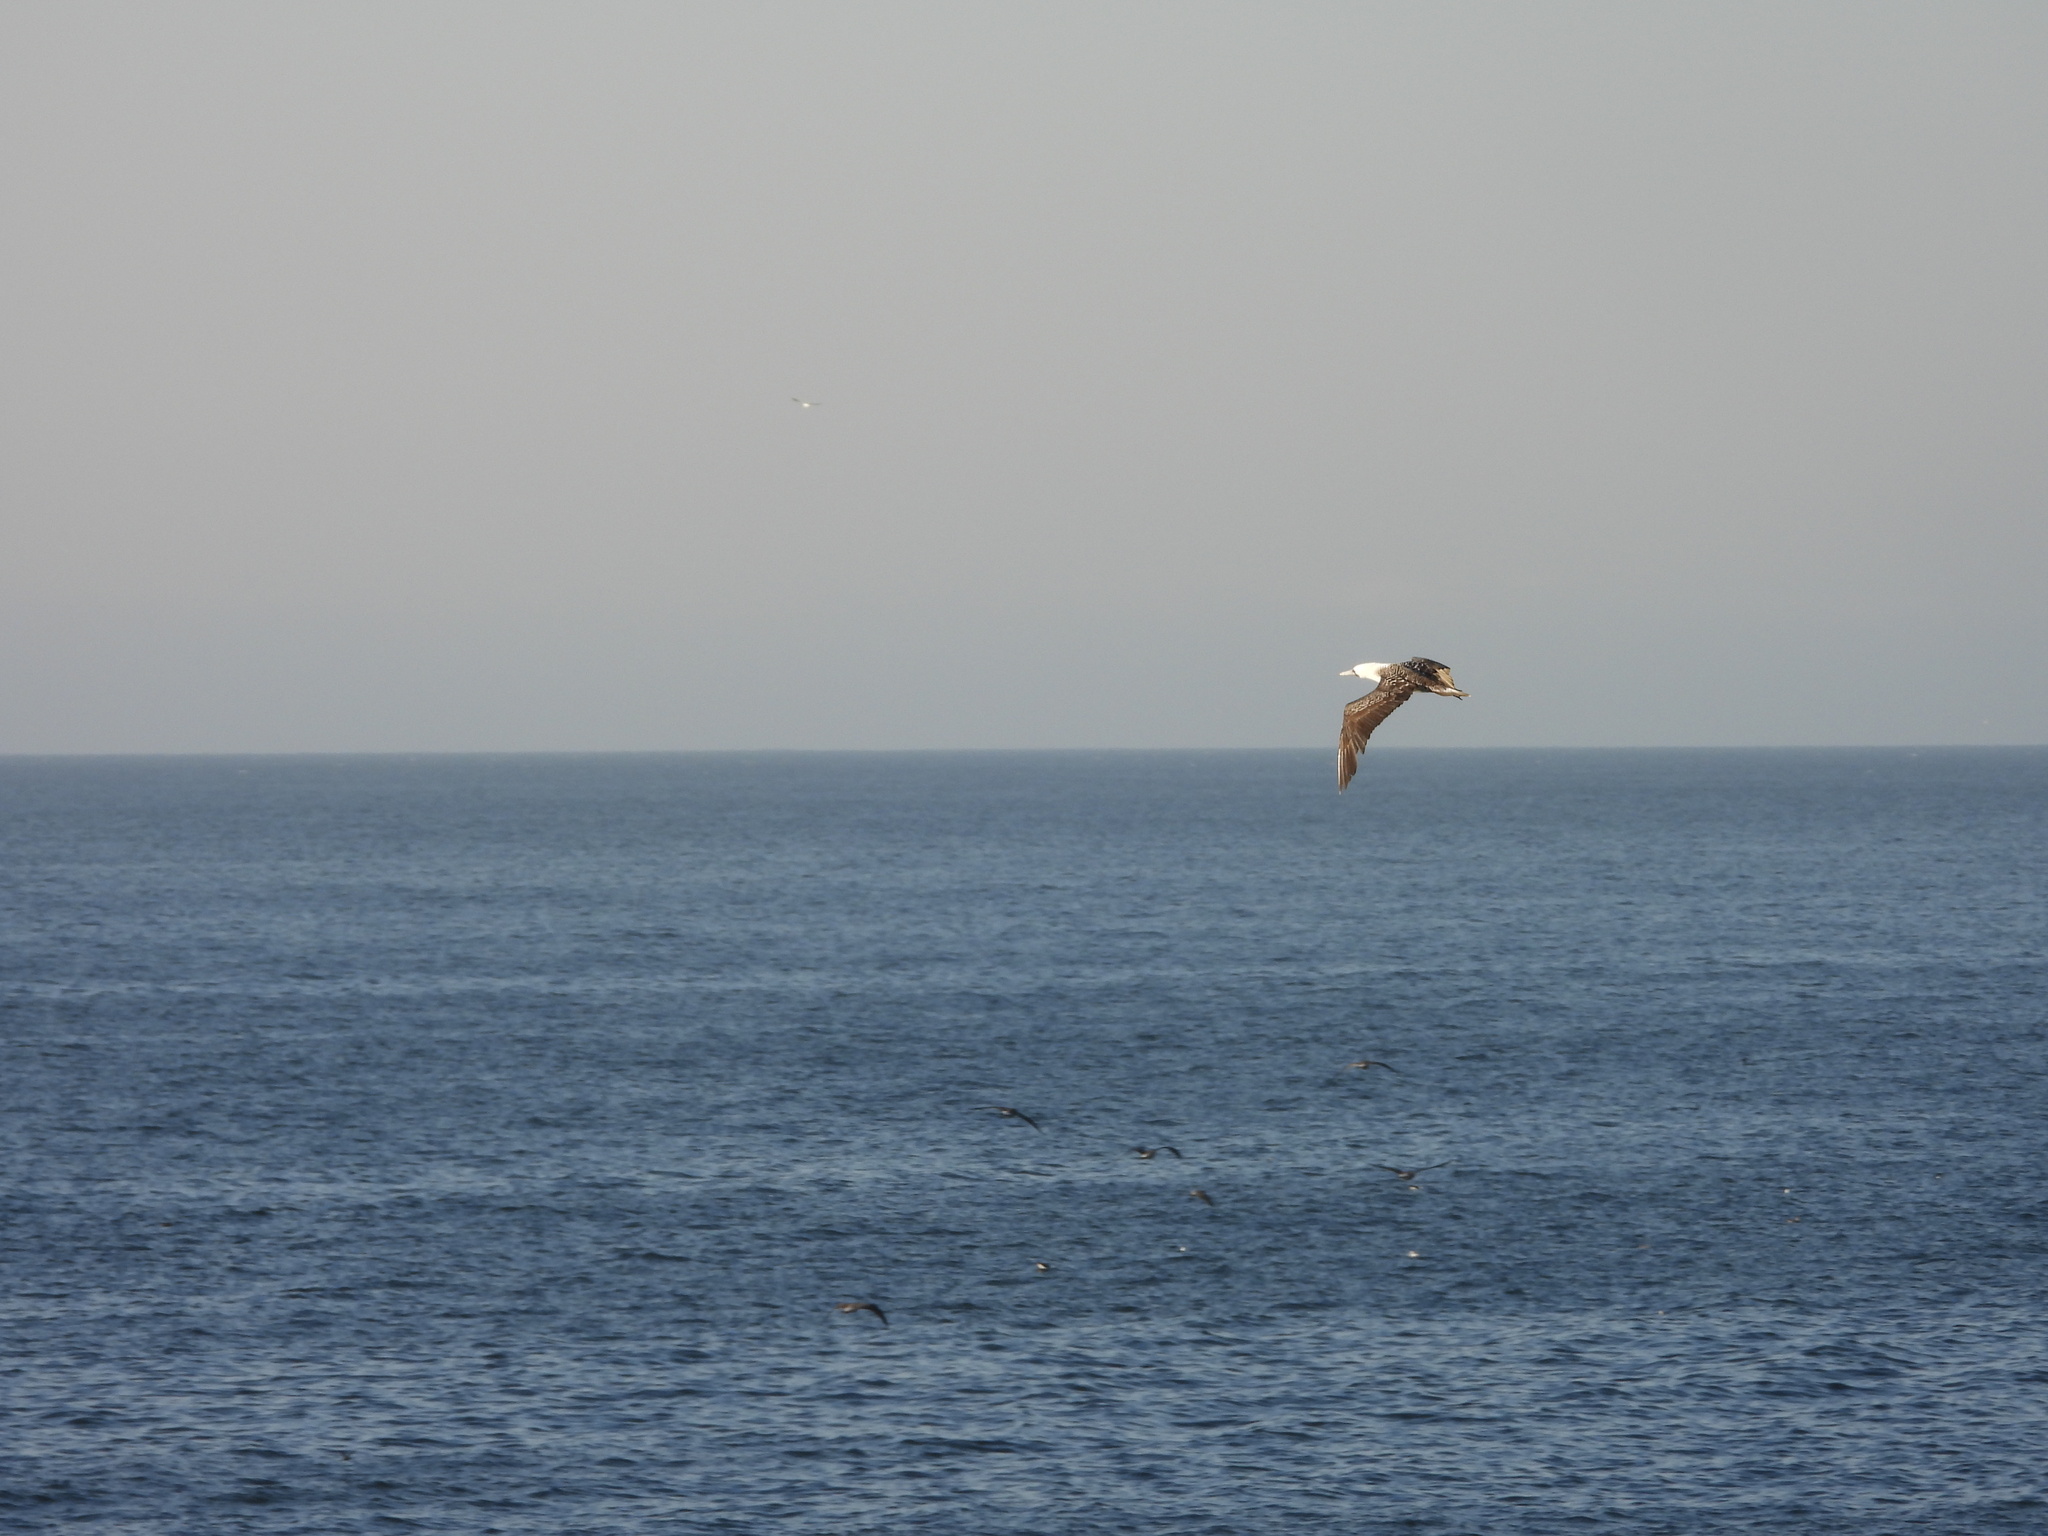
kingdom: Animalia
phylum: Chordata
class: Aves
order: Suliformes
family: Sulidae
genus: Sula
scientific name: Sula variegata
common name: Peruvian booby
